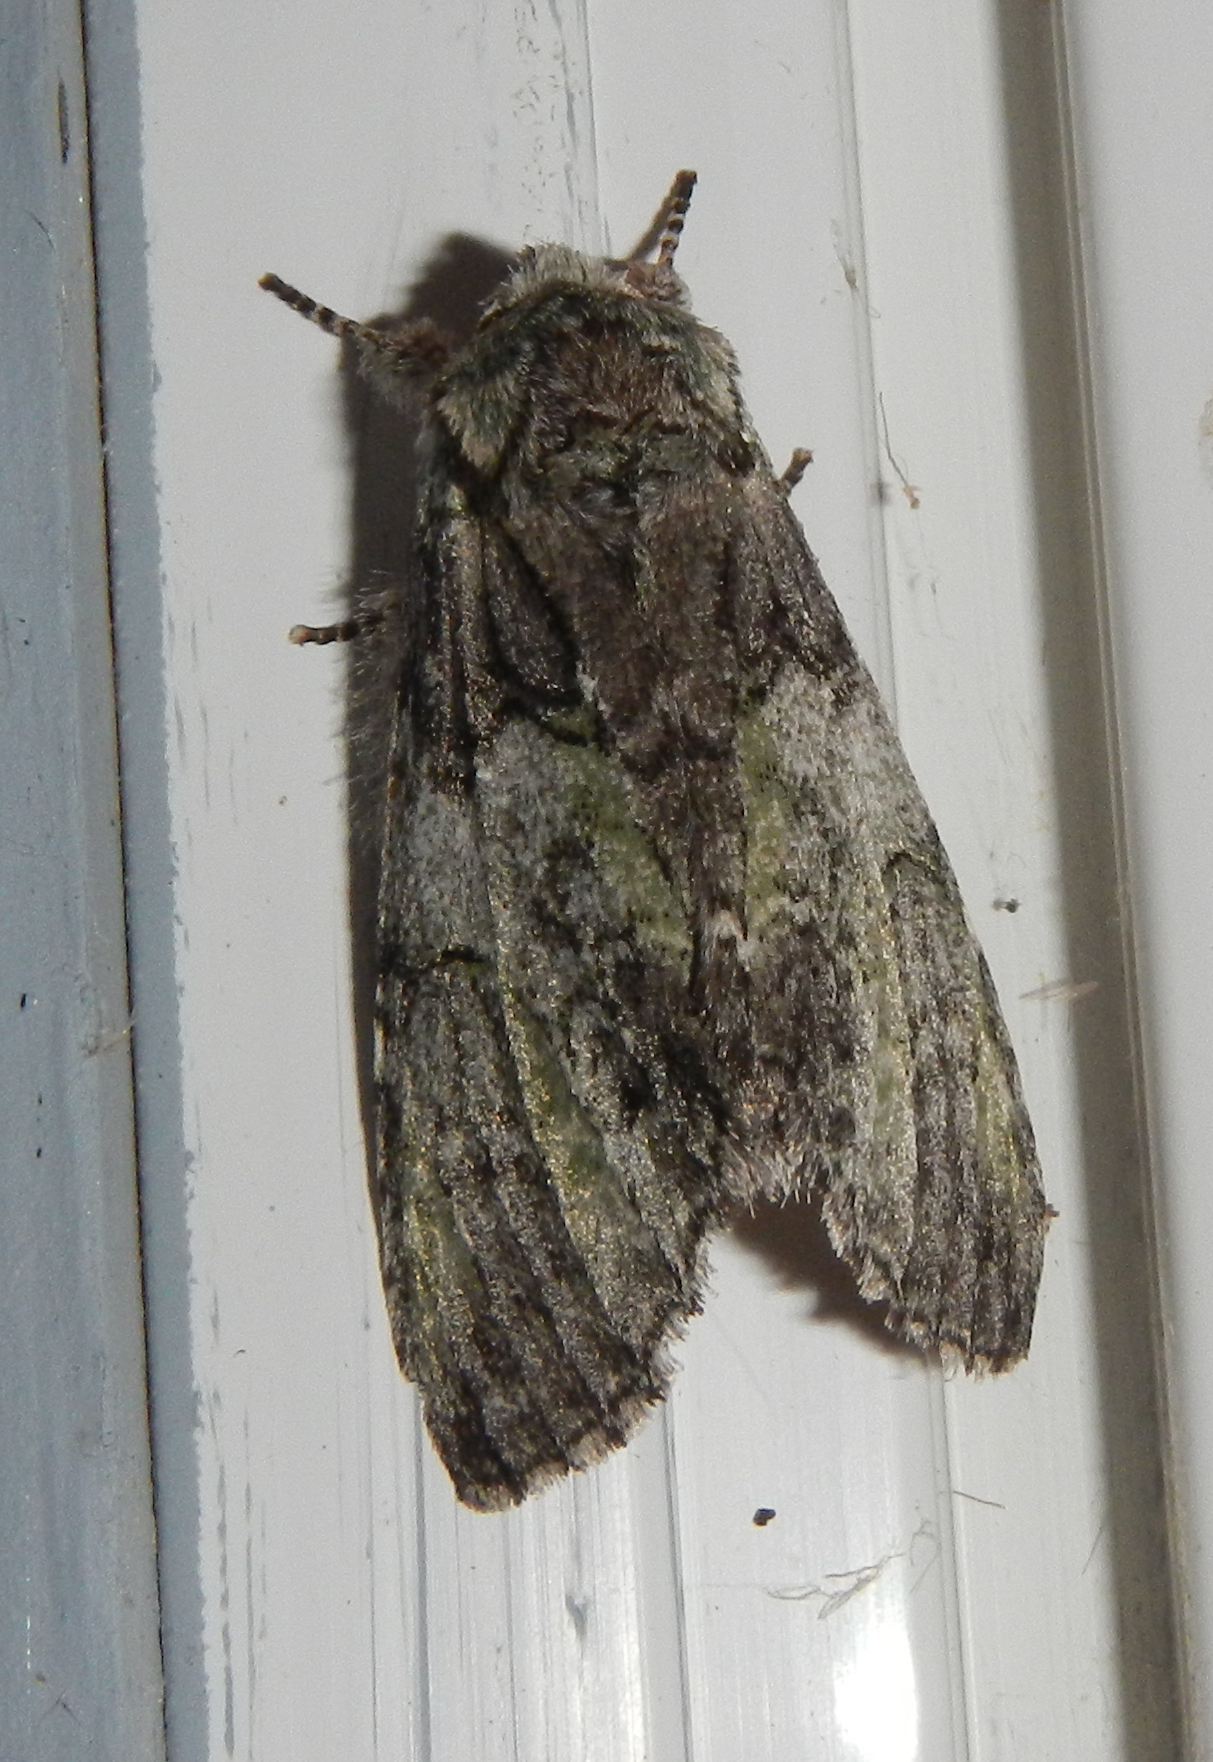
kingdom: Animalia
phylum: Arthropoda
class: Insecta
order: Lepidoptera
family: Notodontidae
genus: Macrurocampa
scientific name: Macrurocampa marthesia
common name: Mottled prominent
